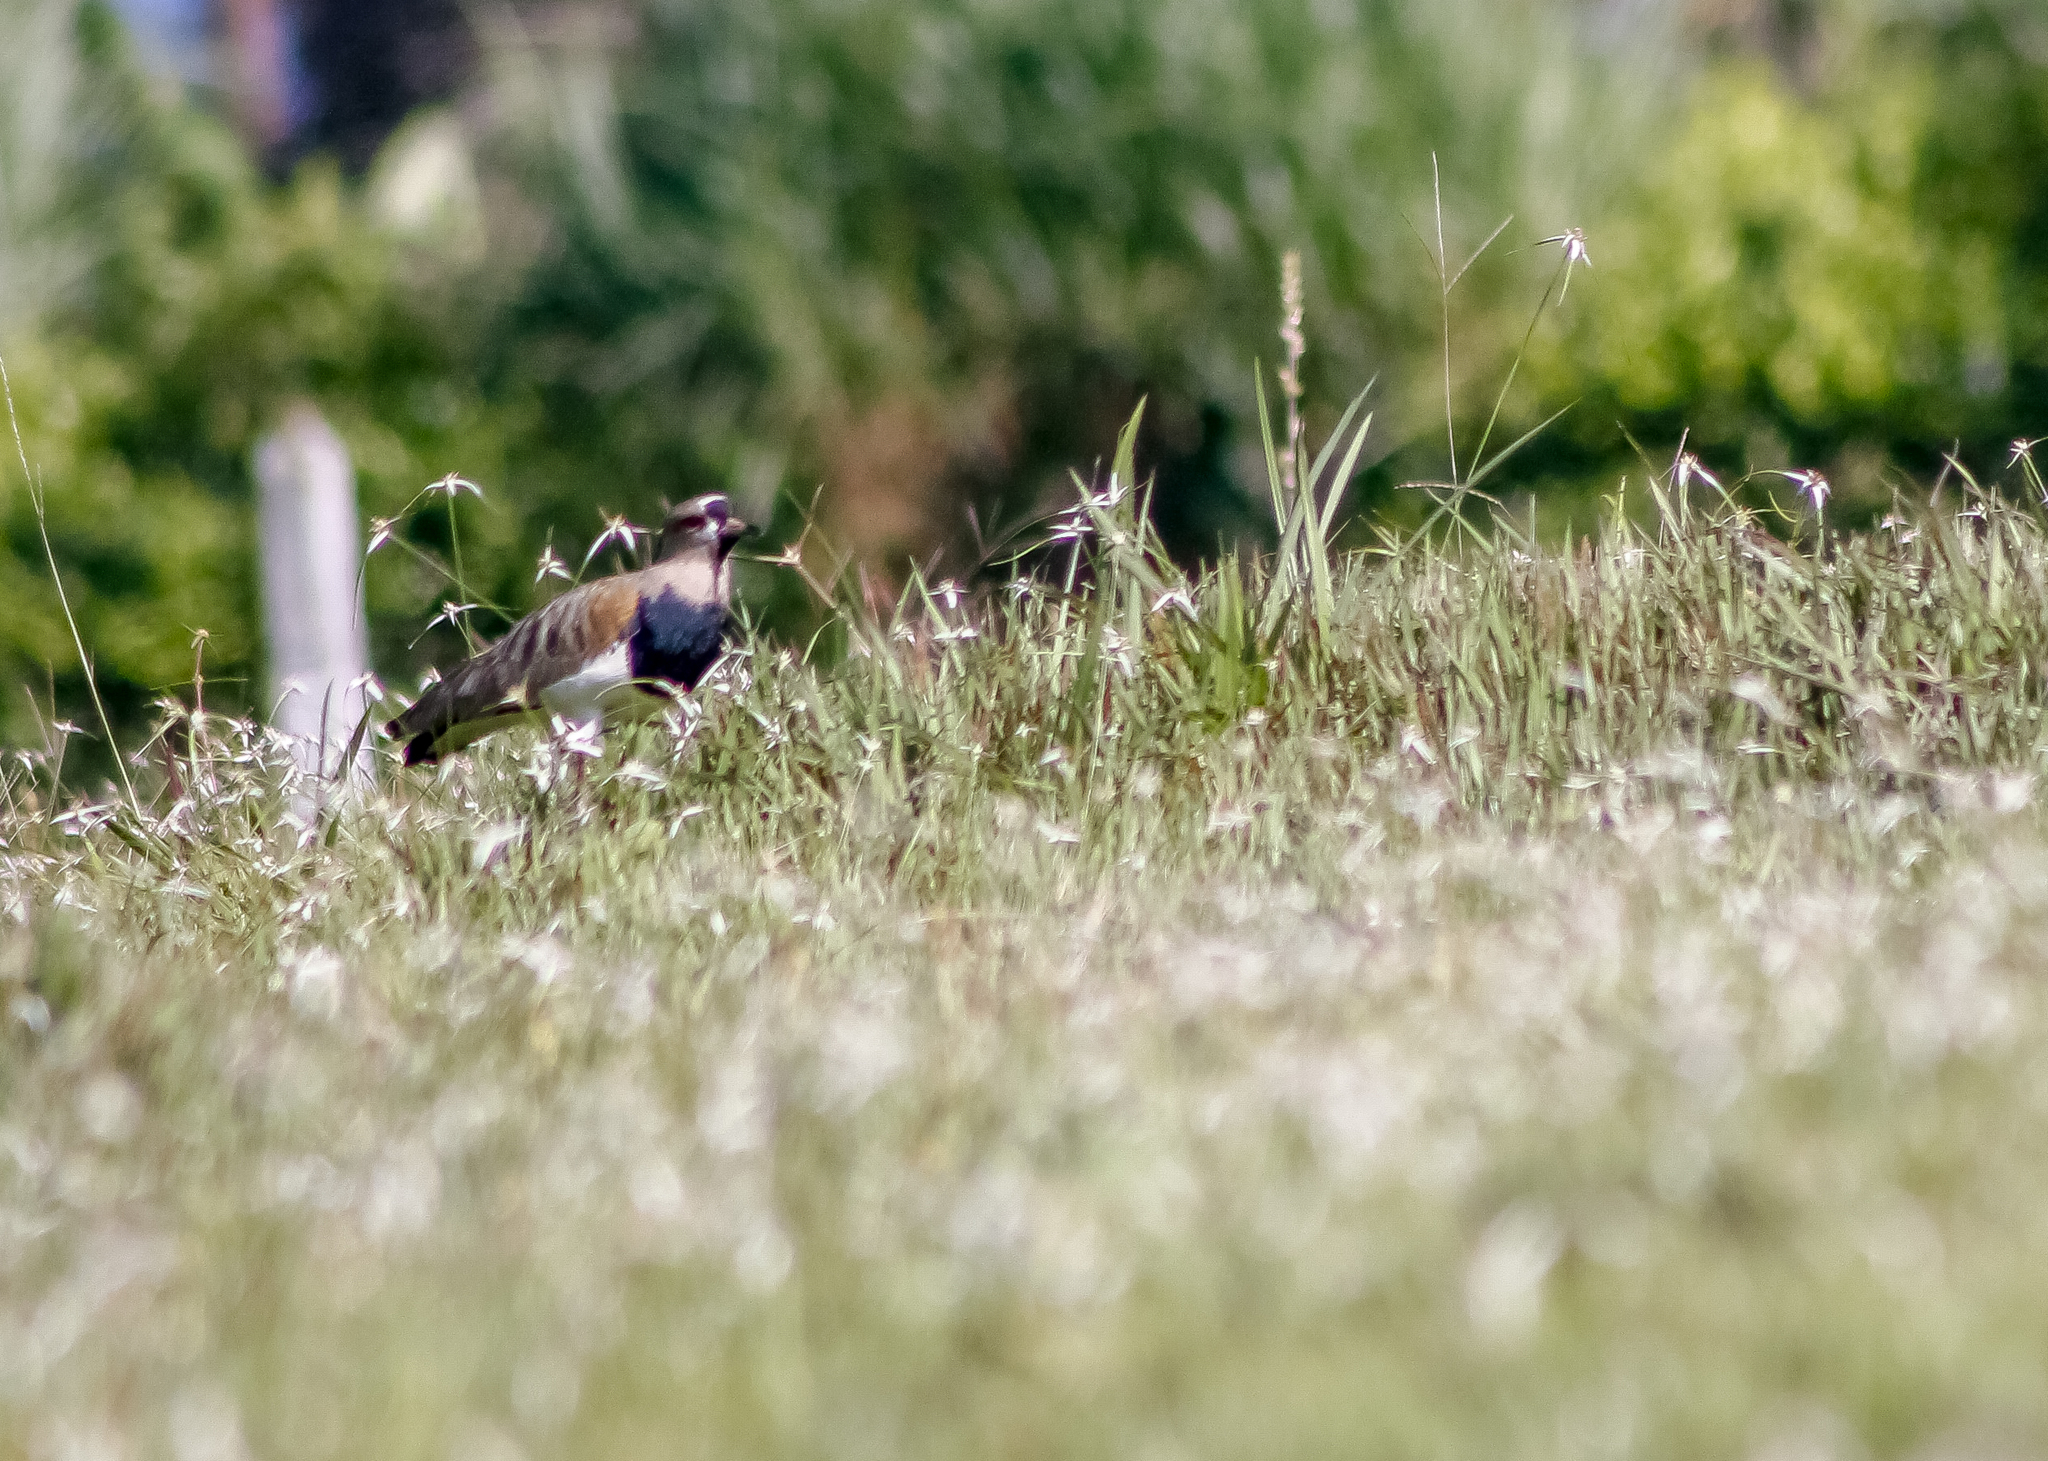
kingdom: Animalia
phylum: Chordata
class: Aves
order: Charadriiformes
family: Charadriidae
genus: Vanellus
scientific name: Vanellus chilensis
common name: Southern lapwing
